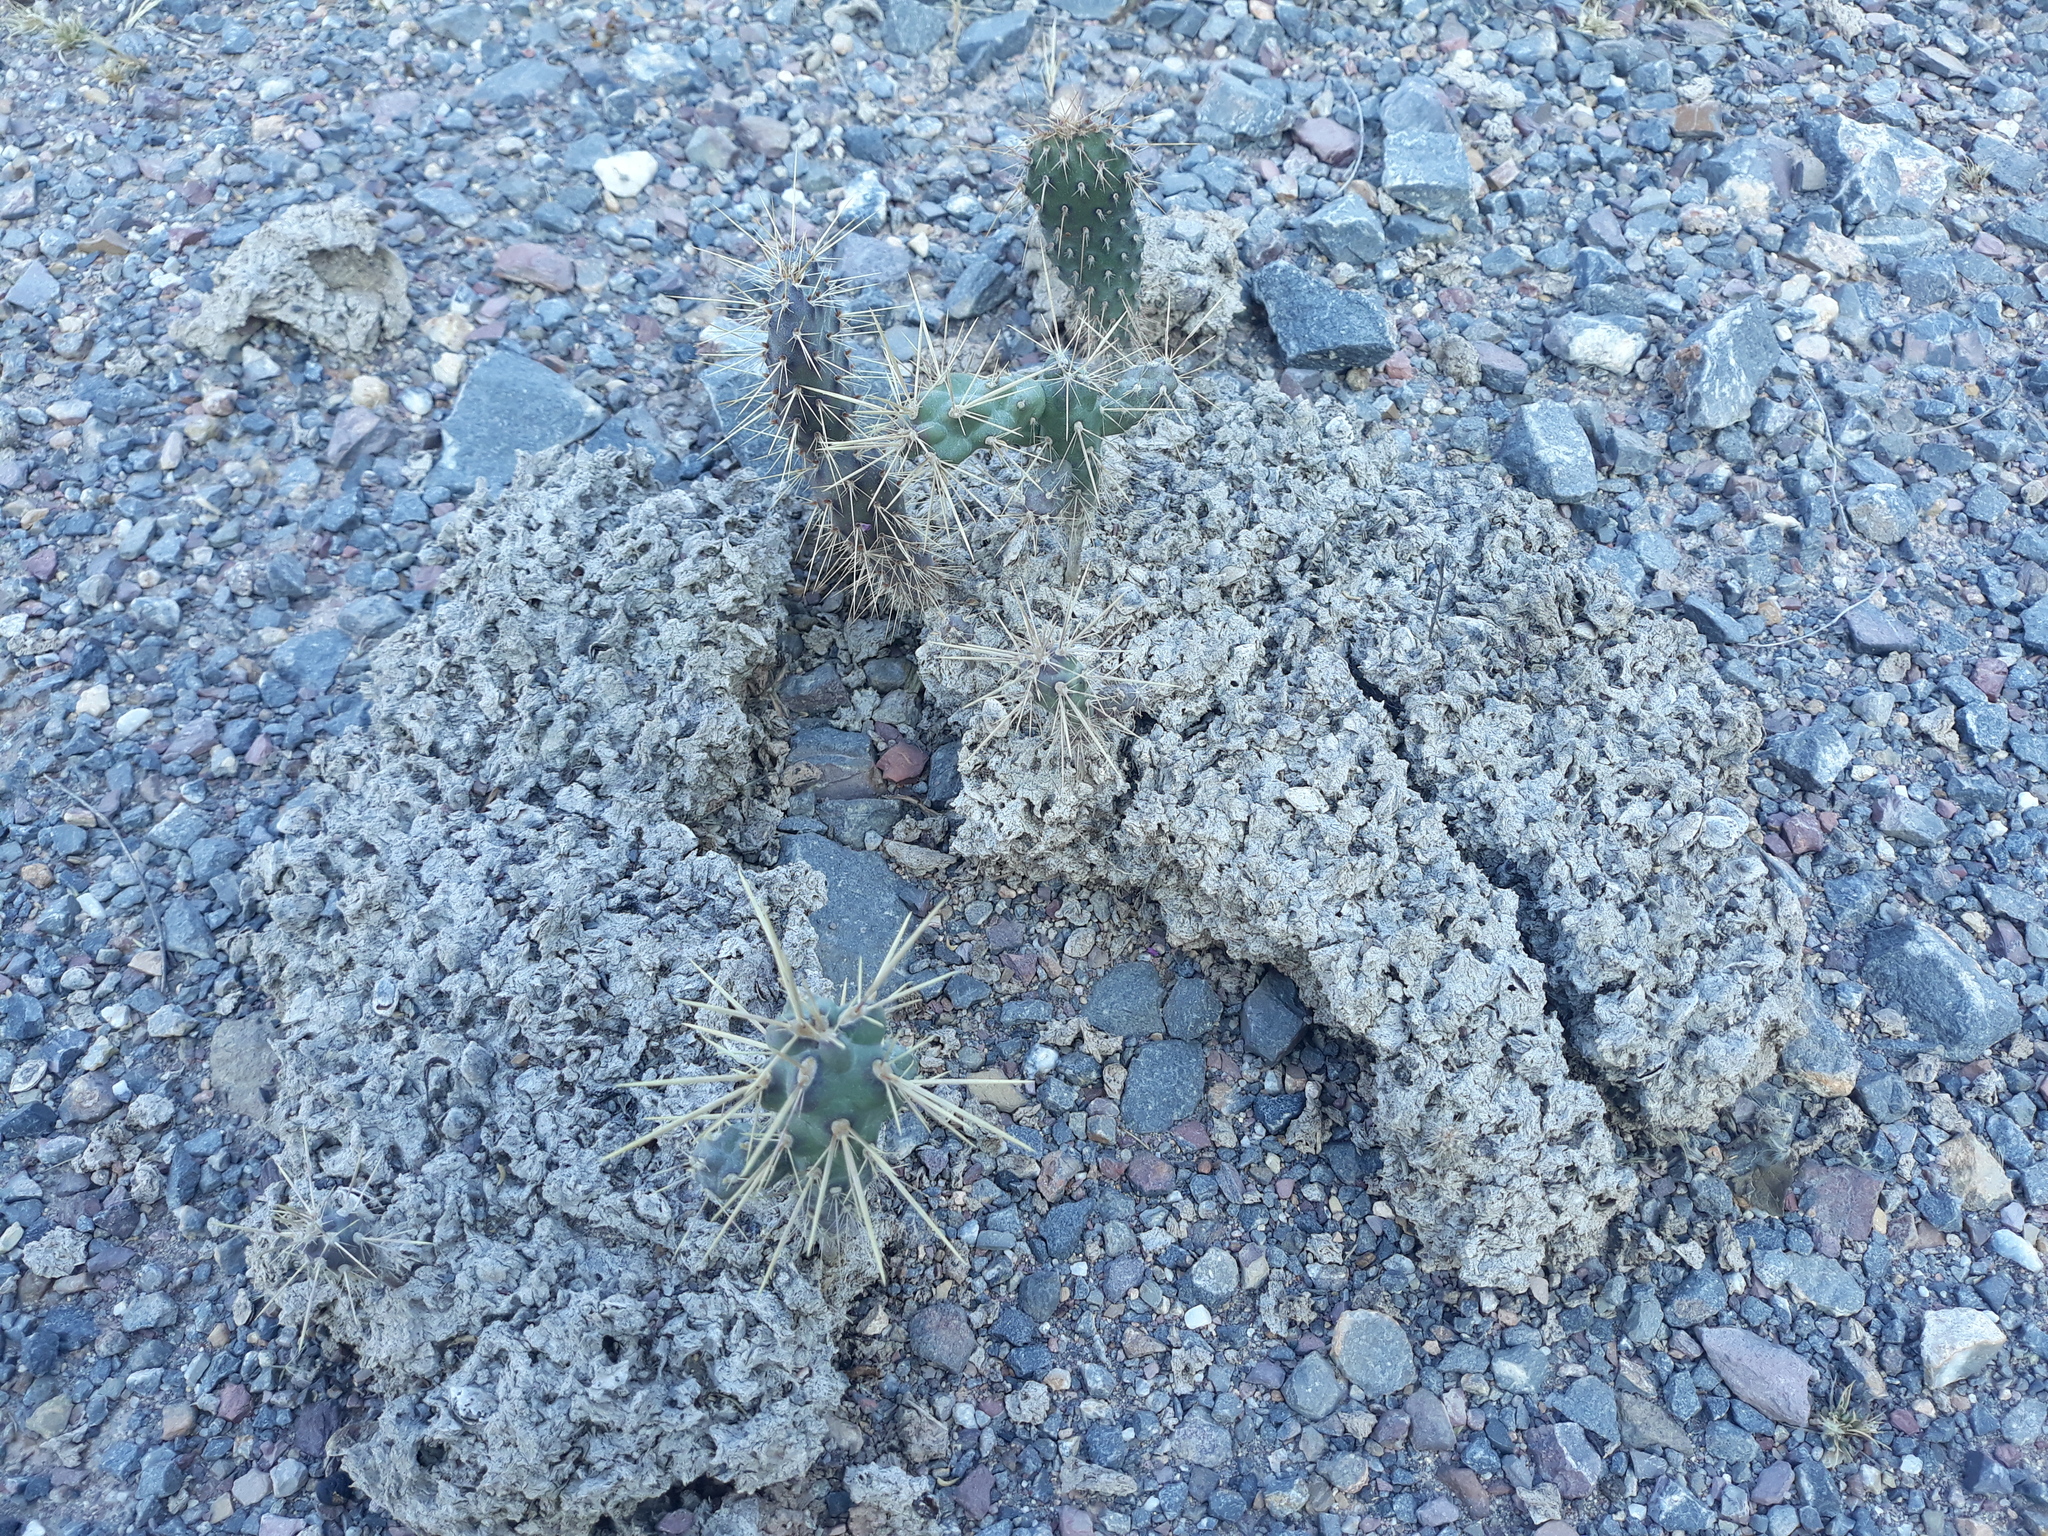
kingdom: Plantae
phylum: Tracheophyta
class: Magnoliopsida
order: Caryophyllales
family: Cactaceae
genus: Cylindropuntia
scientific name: Cylindropuntia imbricata
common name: Candelabrum cactus
